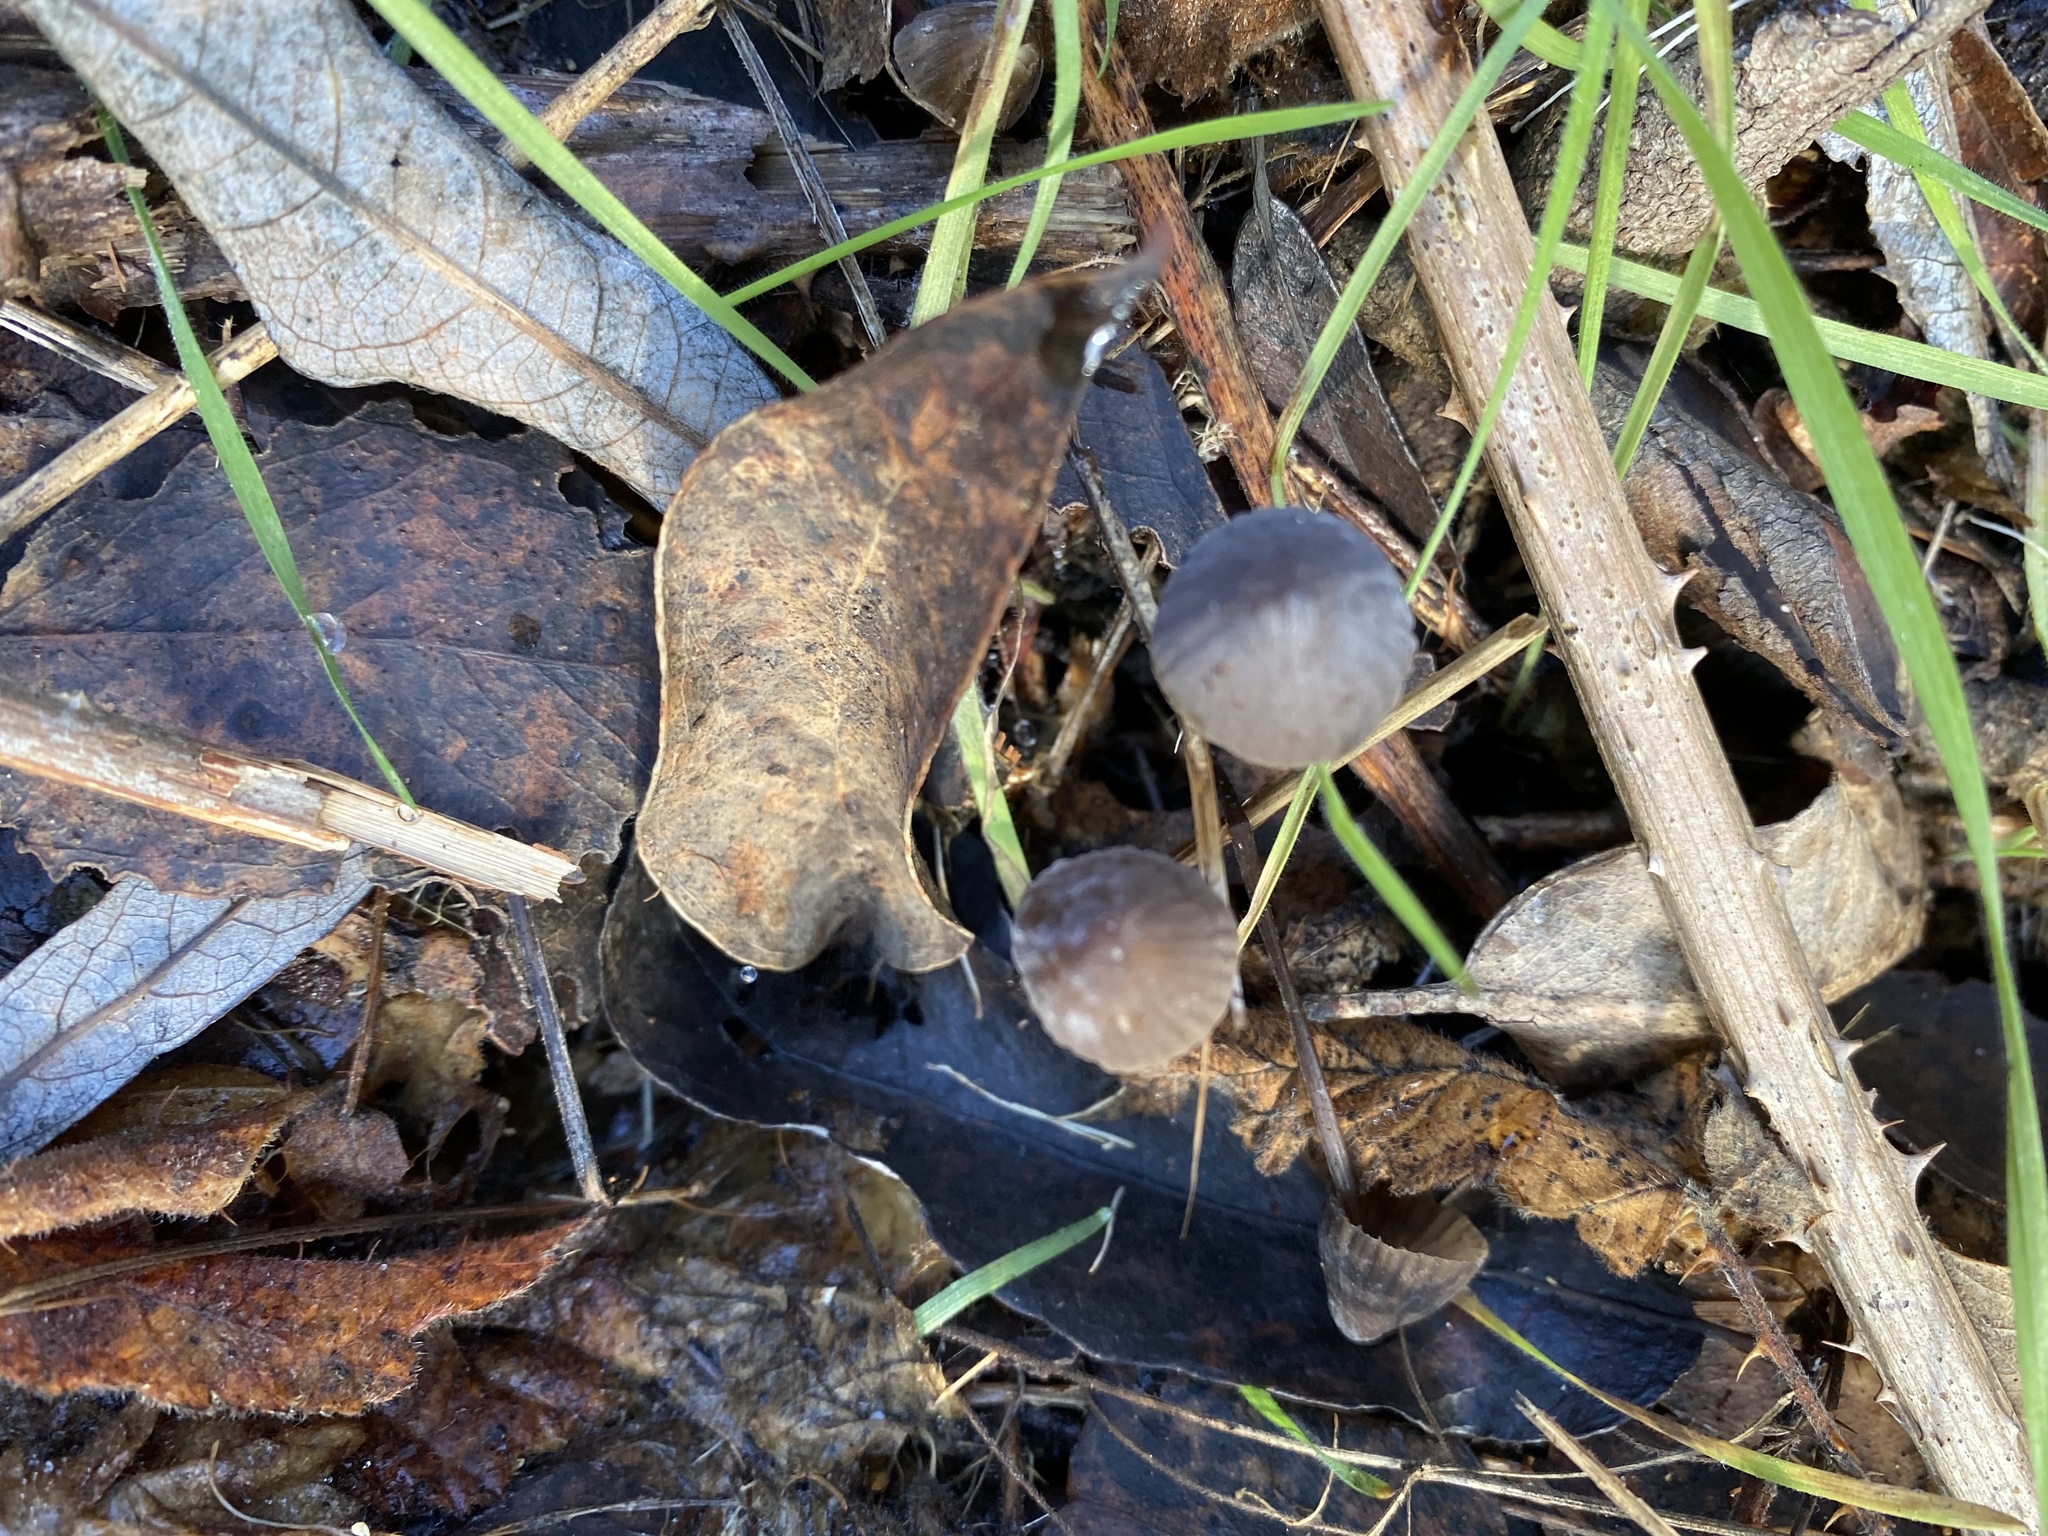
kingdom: Fungi
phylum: Basidiomycota
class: Agaricomycetes
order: Agaricales
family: Mycenaceae
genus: Mycena
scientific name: Mycena leptocephala
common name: Nitrous bonnet
